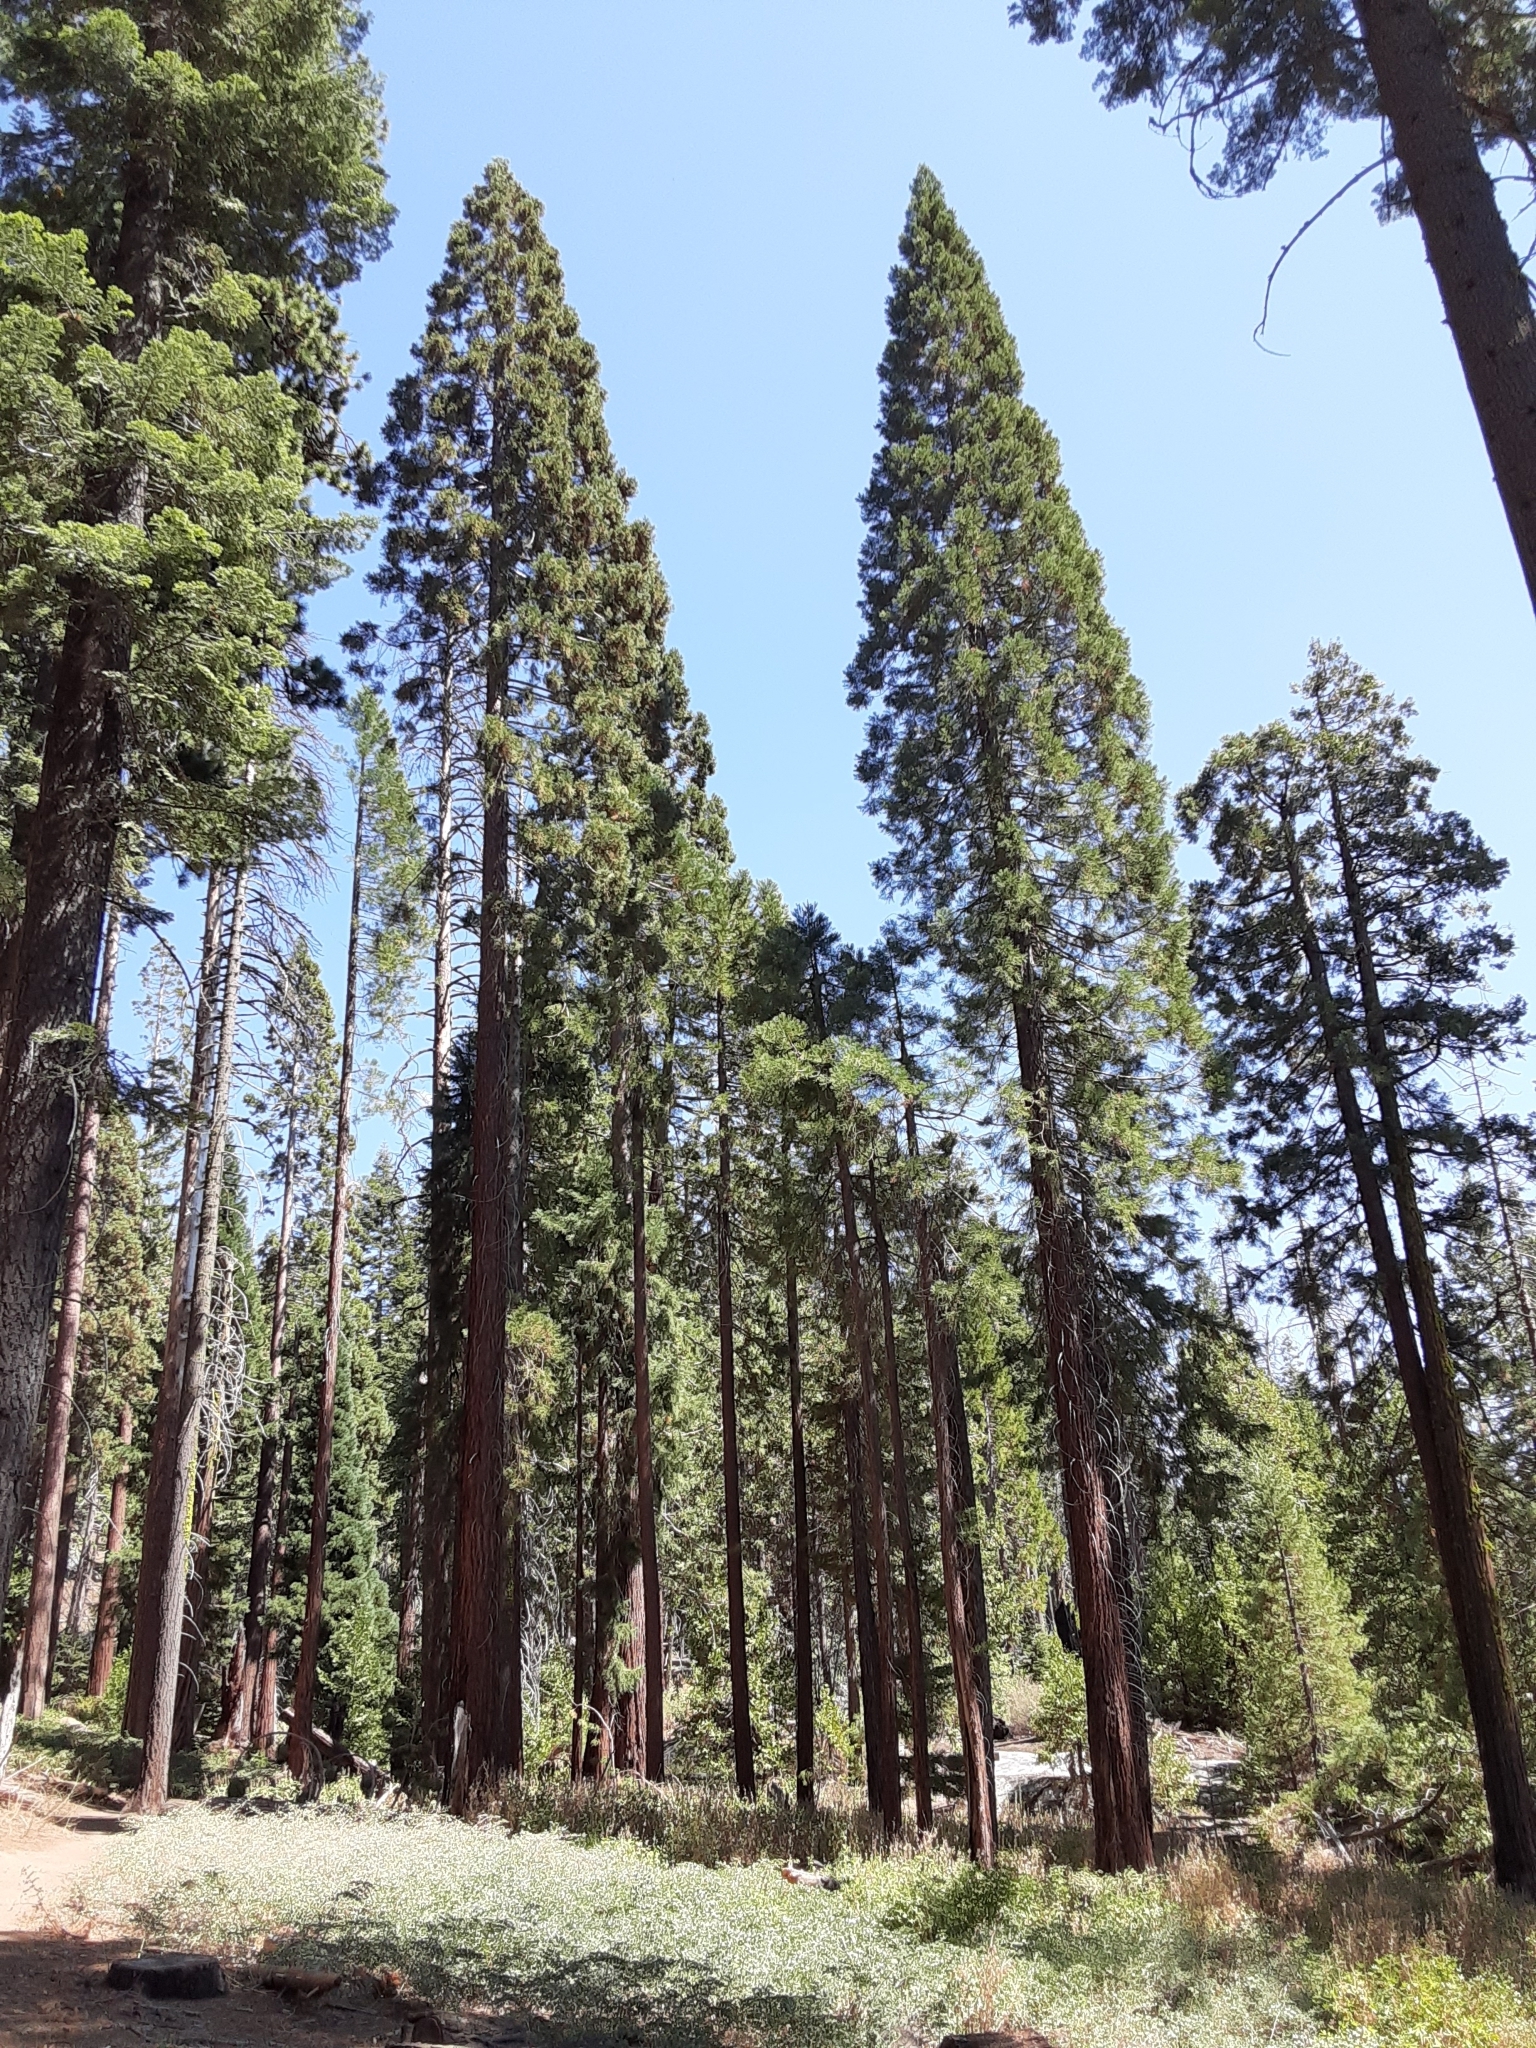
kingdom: Plantae
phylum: Tracheophyta
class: Pinopsida
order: Pinales
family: Cupressaceae
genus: Sequoiadendron
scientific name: Sequoiadendron giganteum
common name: Wellingtonia
